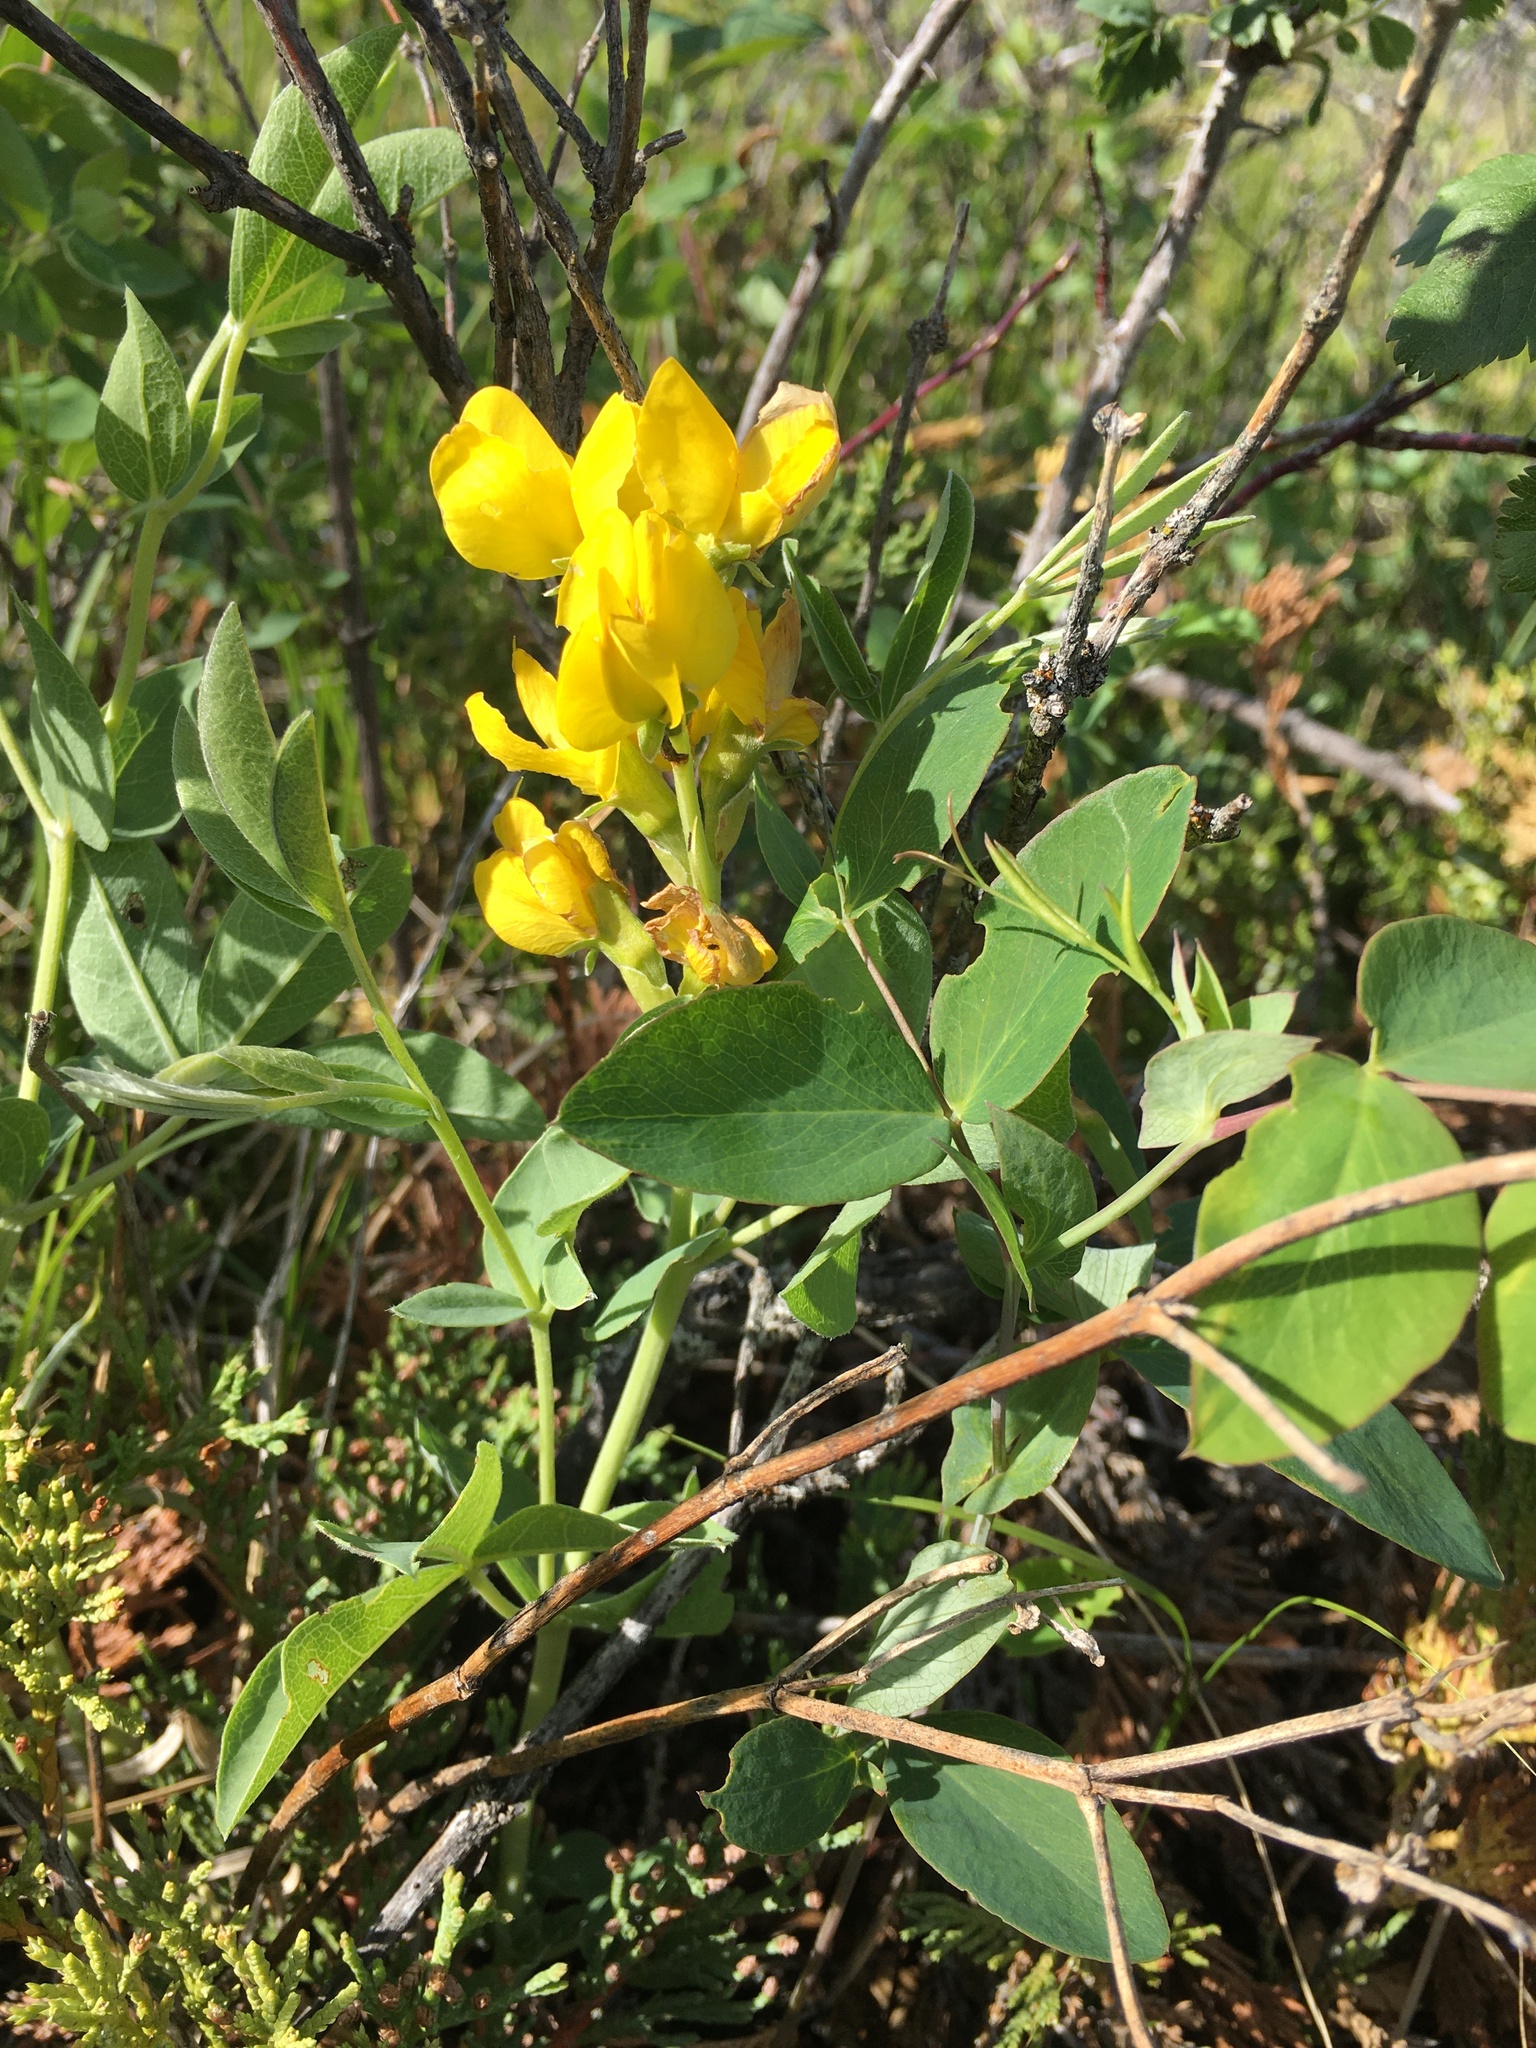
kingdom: Plantae
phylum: Tracheophyta
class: Magnoliopsida
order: Fabales
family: Fabaceae
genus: Thermopsis
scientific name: Thermopsis rhombifolia
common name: Circle-pod-pea
